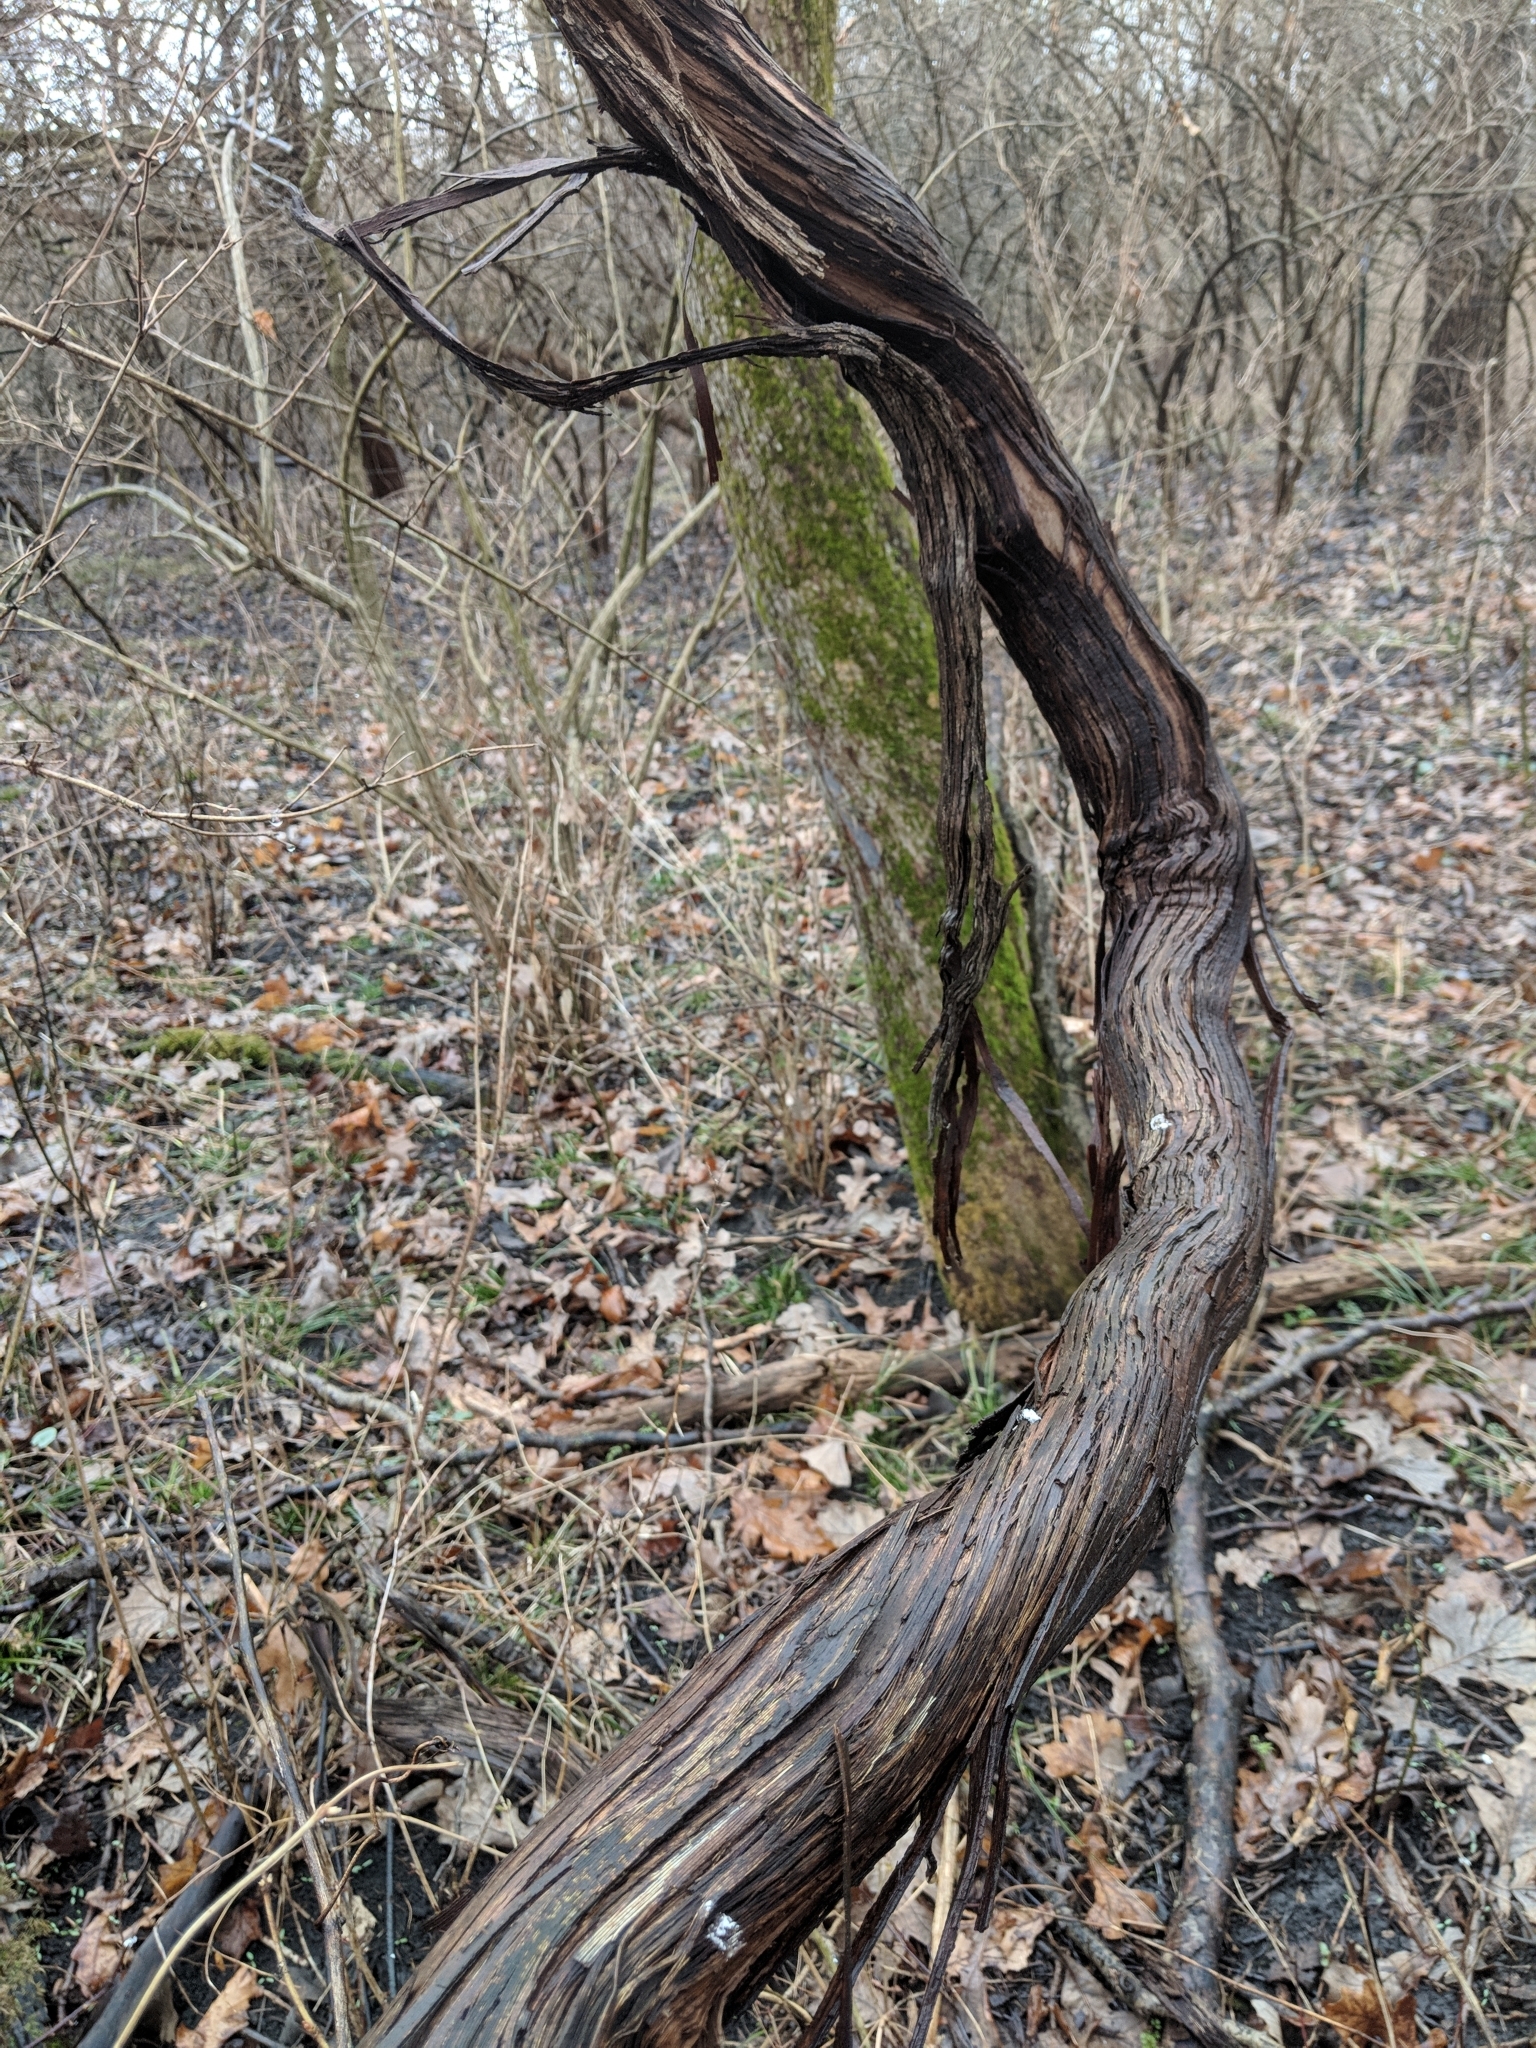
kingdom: Plantae
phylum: Tracheophyta
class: Magnoliopsida
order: Vitales
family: Vitaceae
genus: Vitis
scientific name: Vitis riparia
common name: Frost grape
